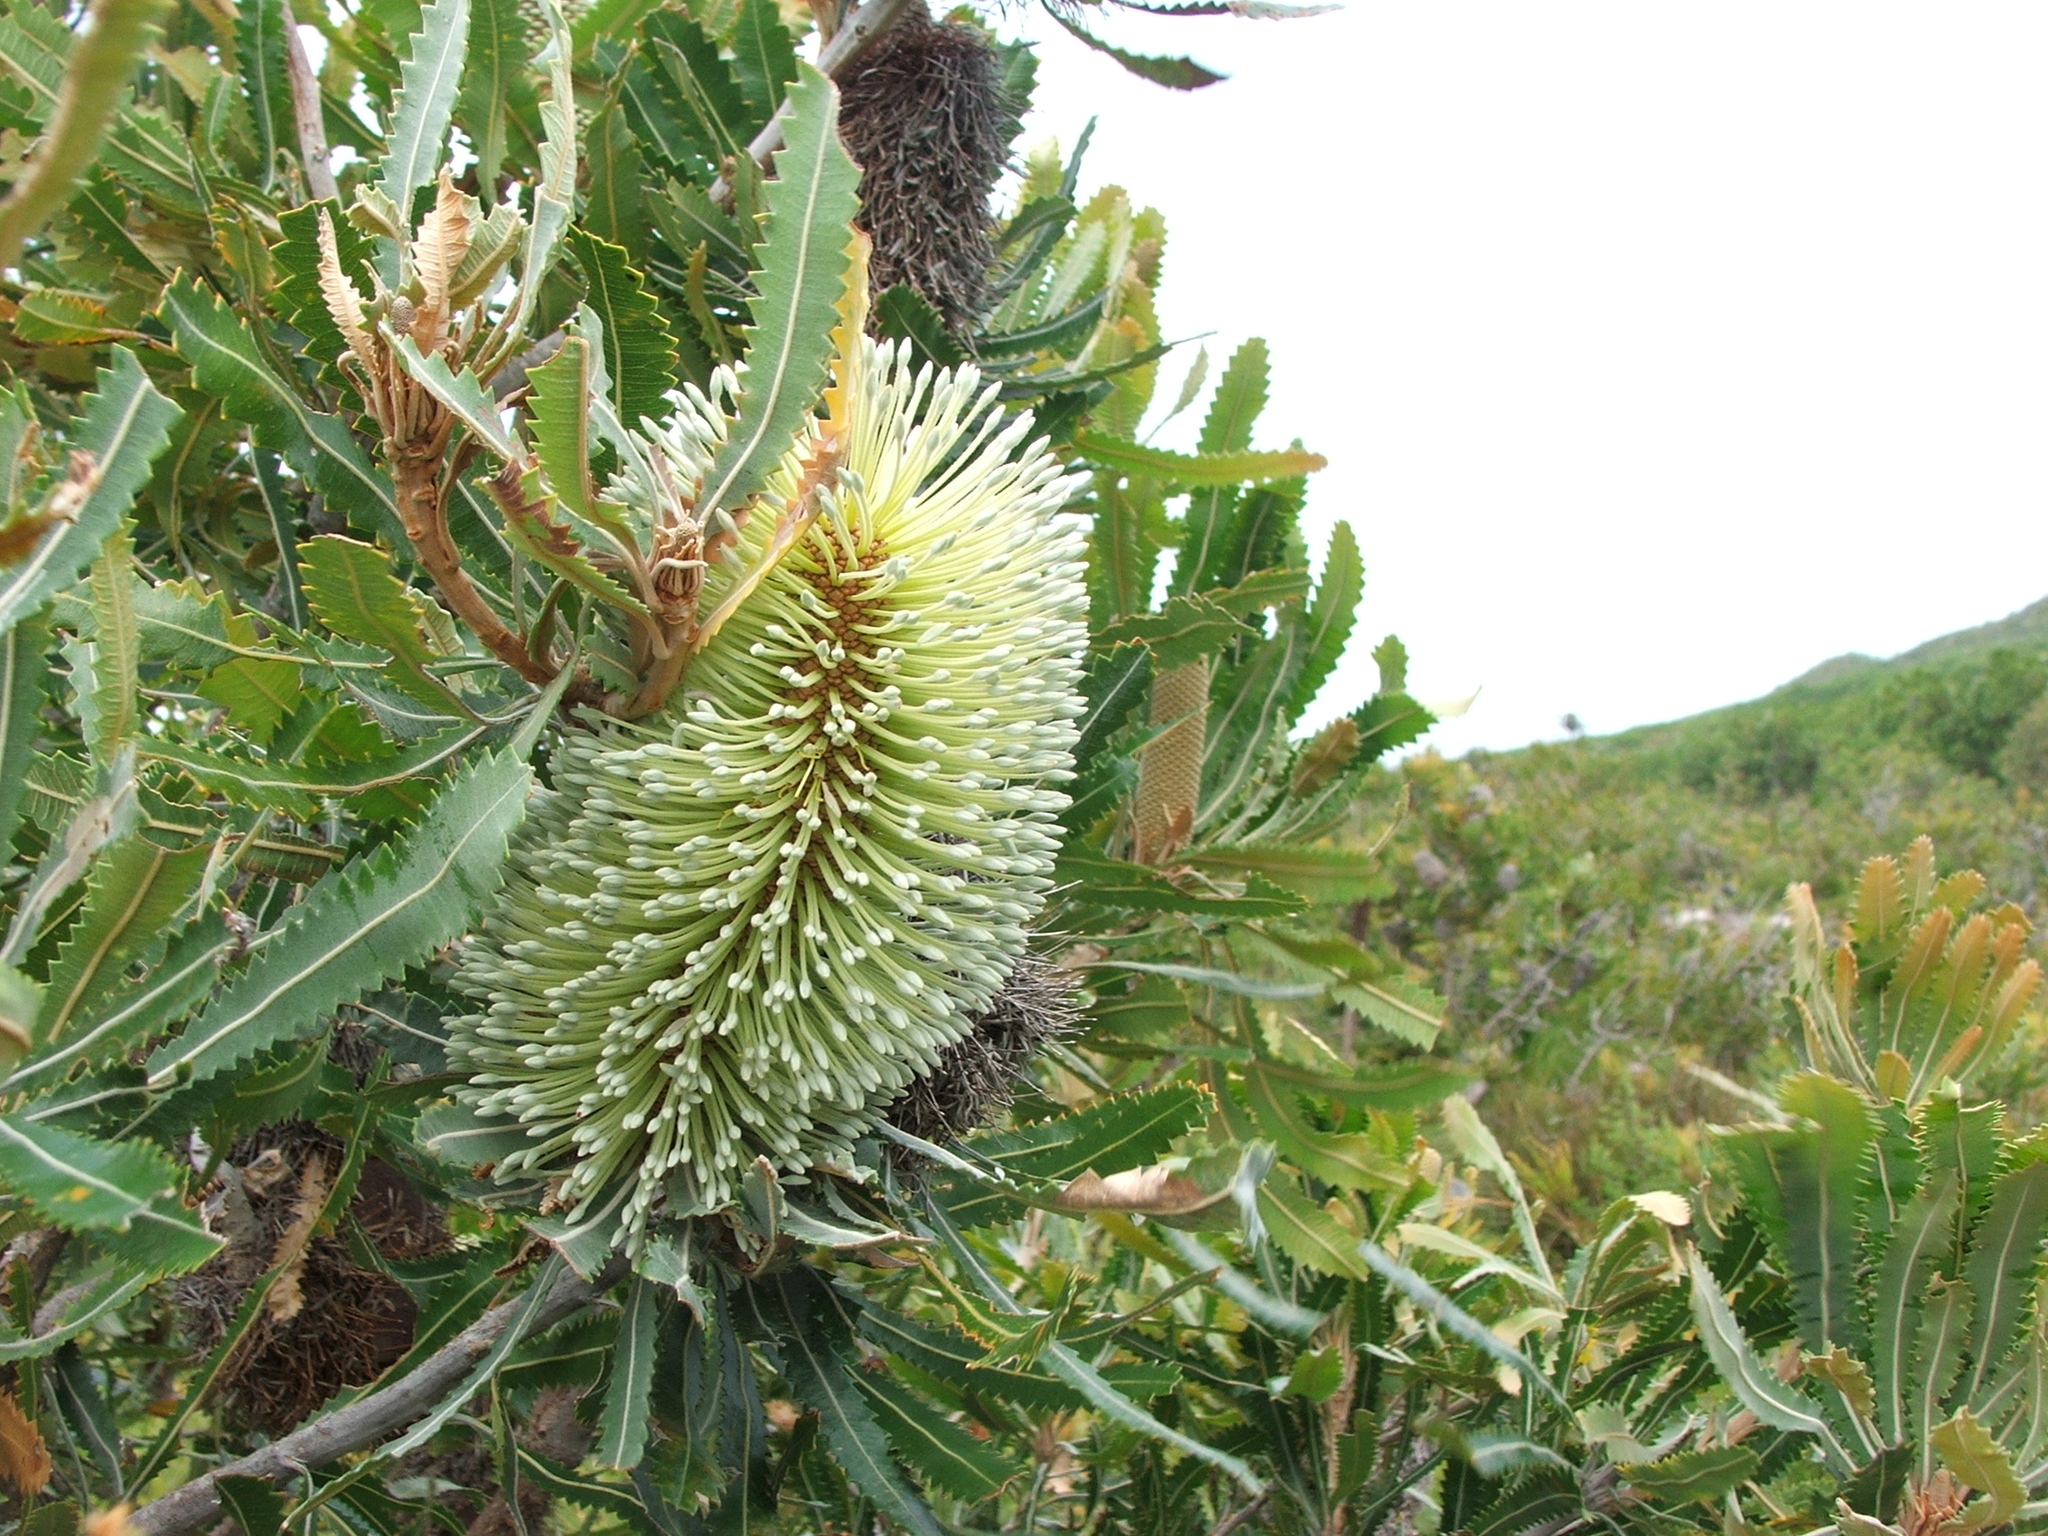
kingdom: Plantae
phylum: Tracheophyta
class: Magnoliopsida
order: Proteales
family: Proteaceae
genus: Banksia
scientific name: Banksia aemula
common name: Wallum banksia
